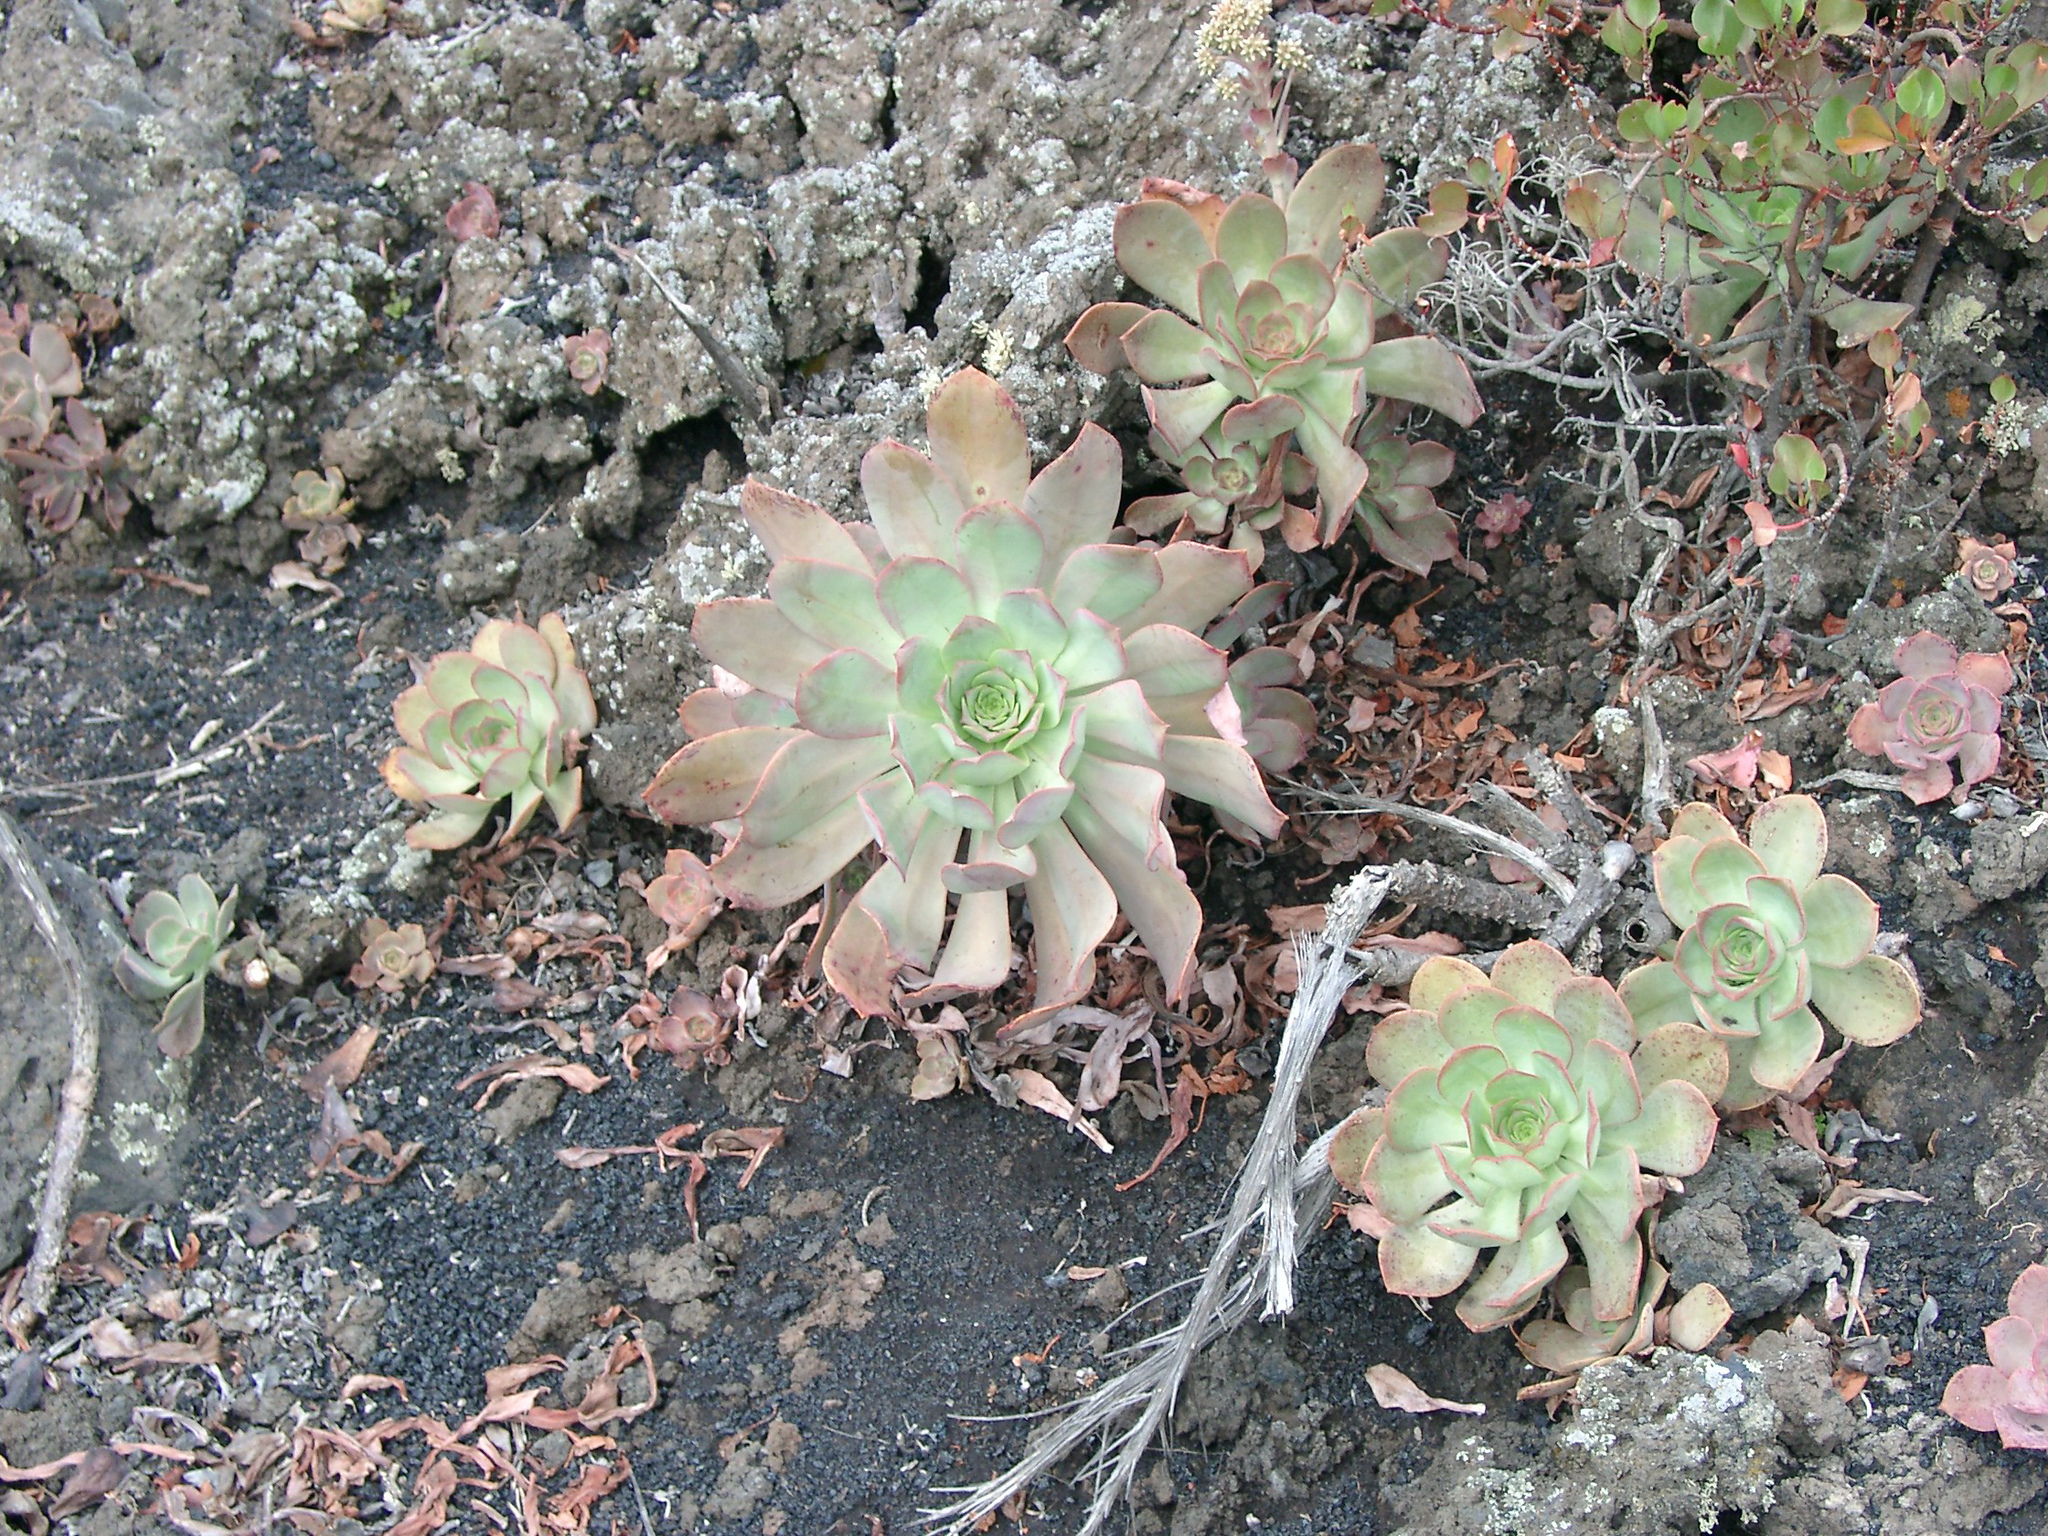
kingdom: Plantae
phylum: Tracheophyta
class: Magnoliopsida
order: Saxifragales
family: Crassulaceae
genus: Aeonium
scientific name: Aeonium davidbramwellii
